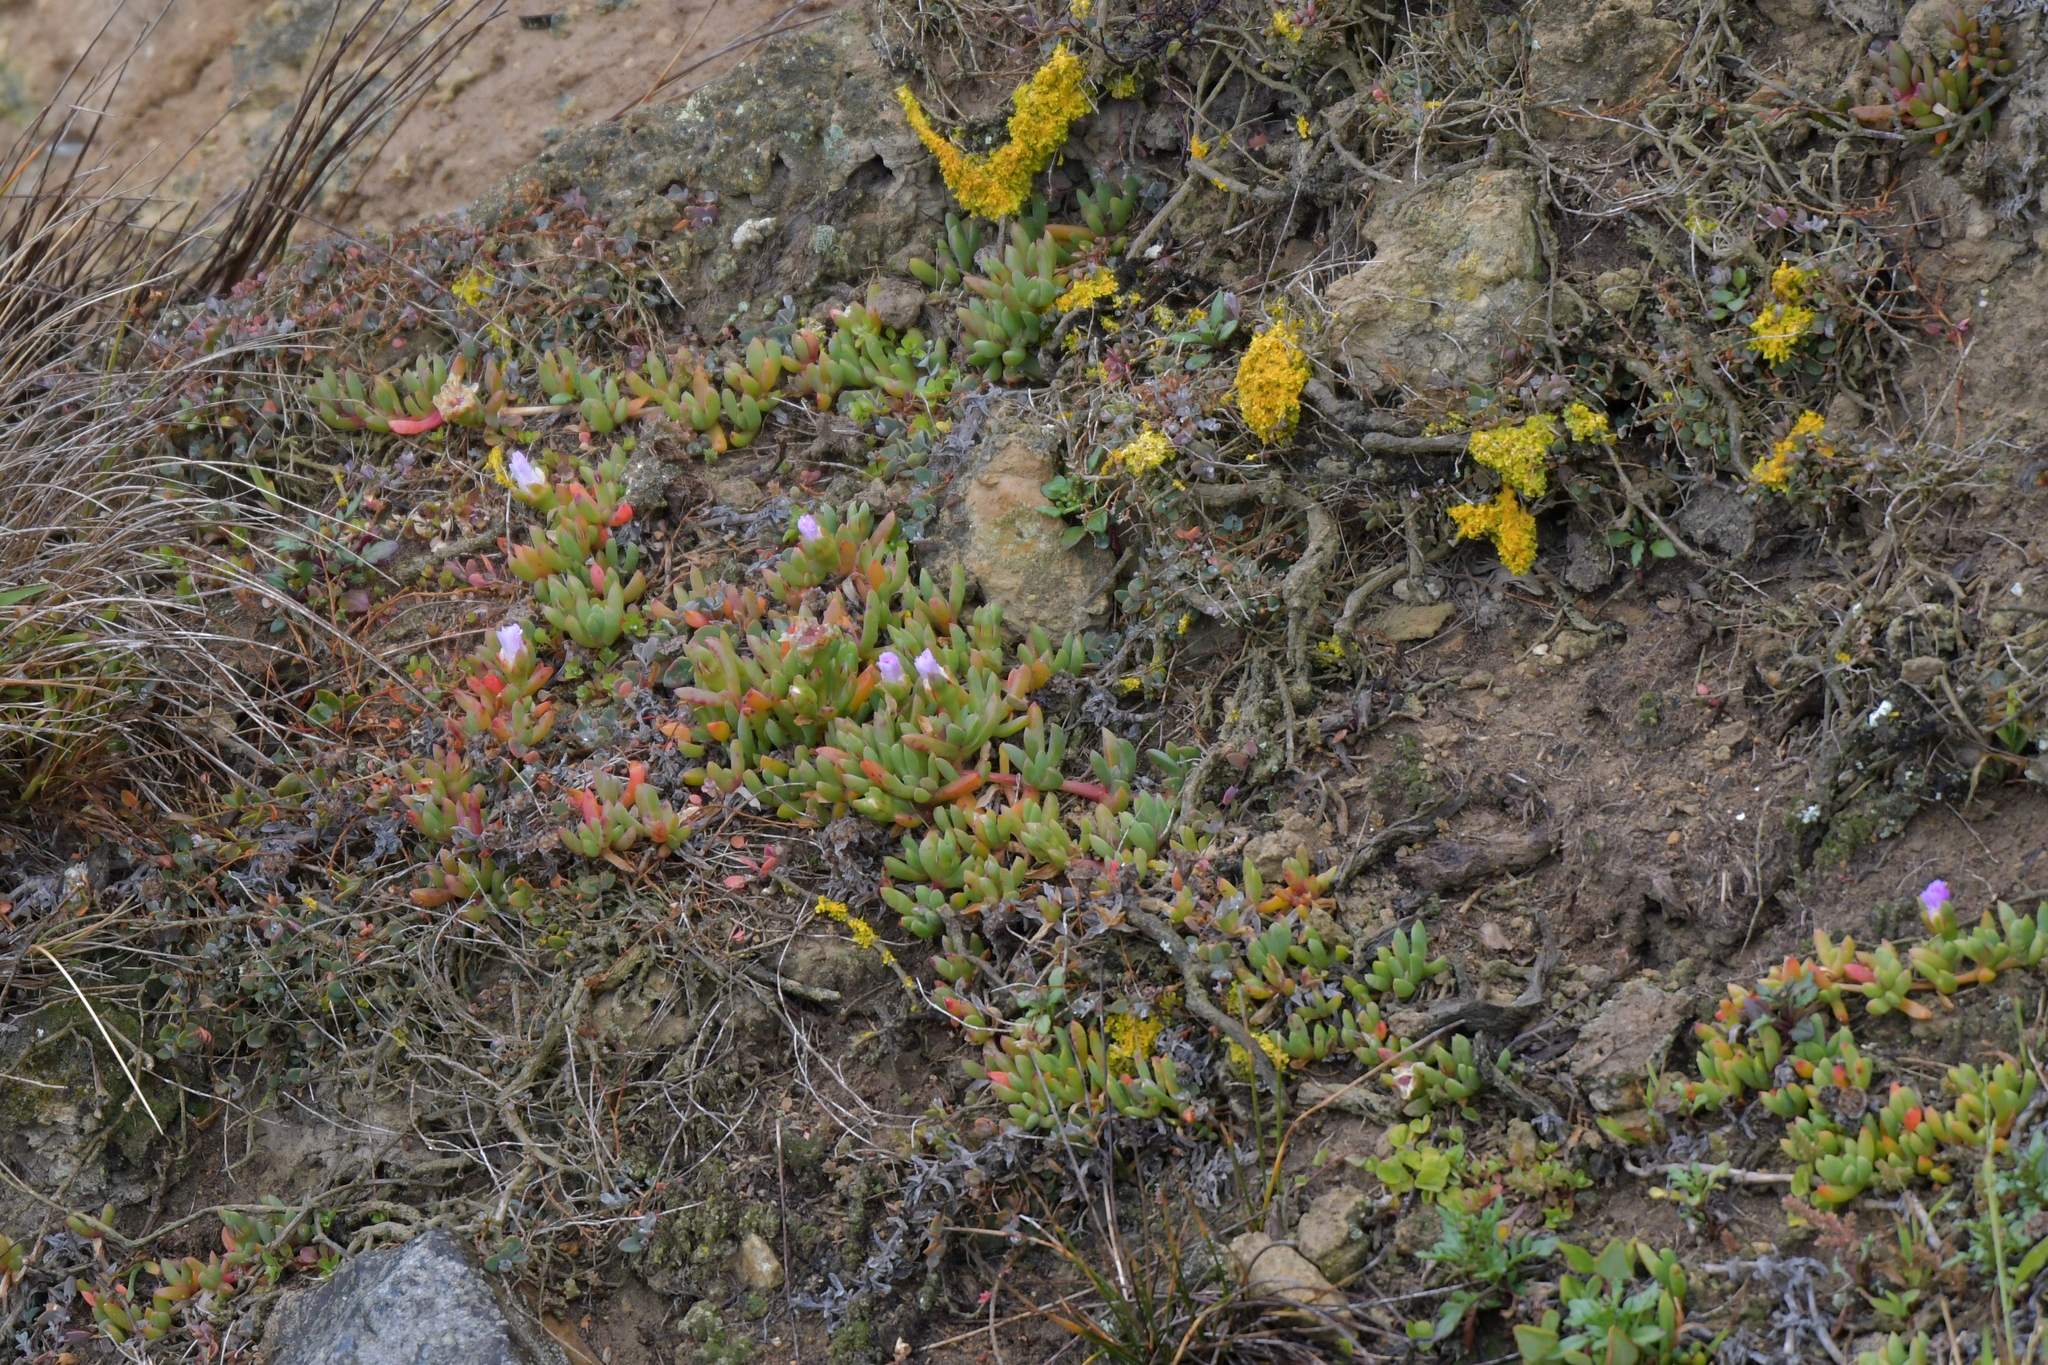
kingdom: Plantae
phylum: Tracheophyta
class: Magnoliopsida
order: Caryophyllales
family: Aizoaceae
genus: Disphyma
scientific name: Disphyma australe
